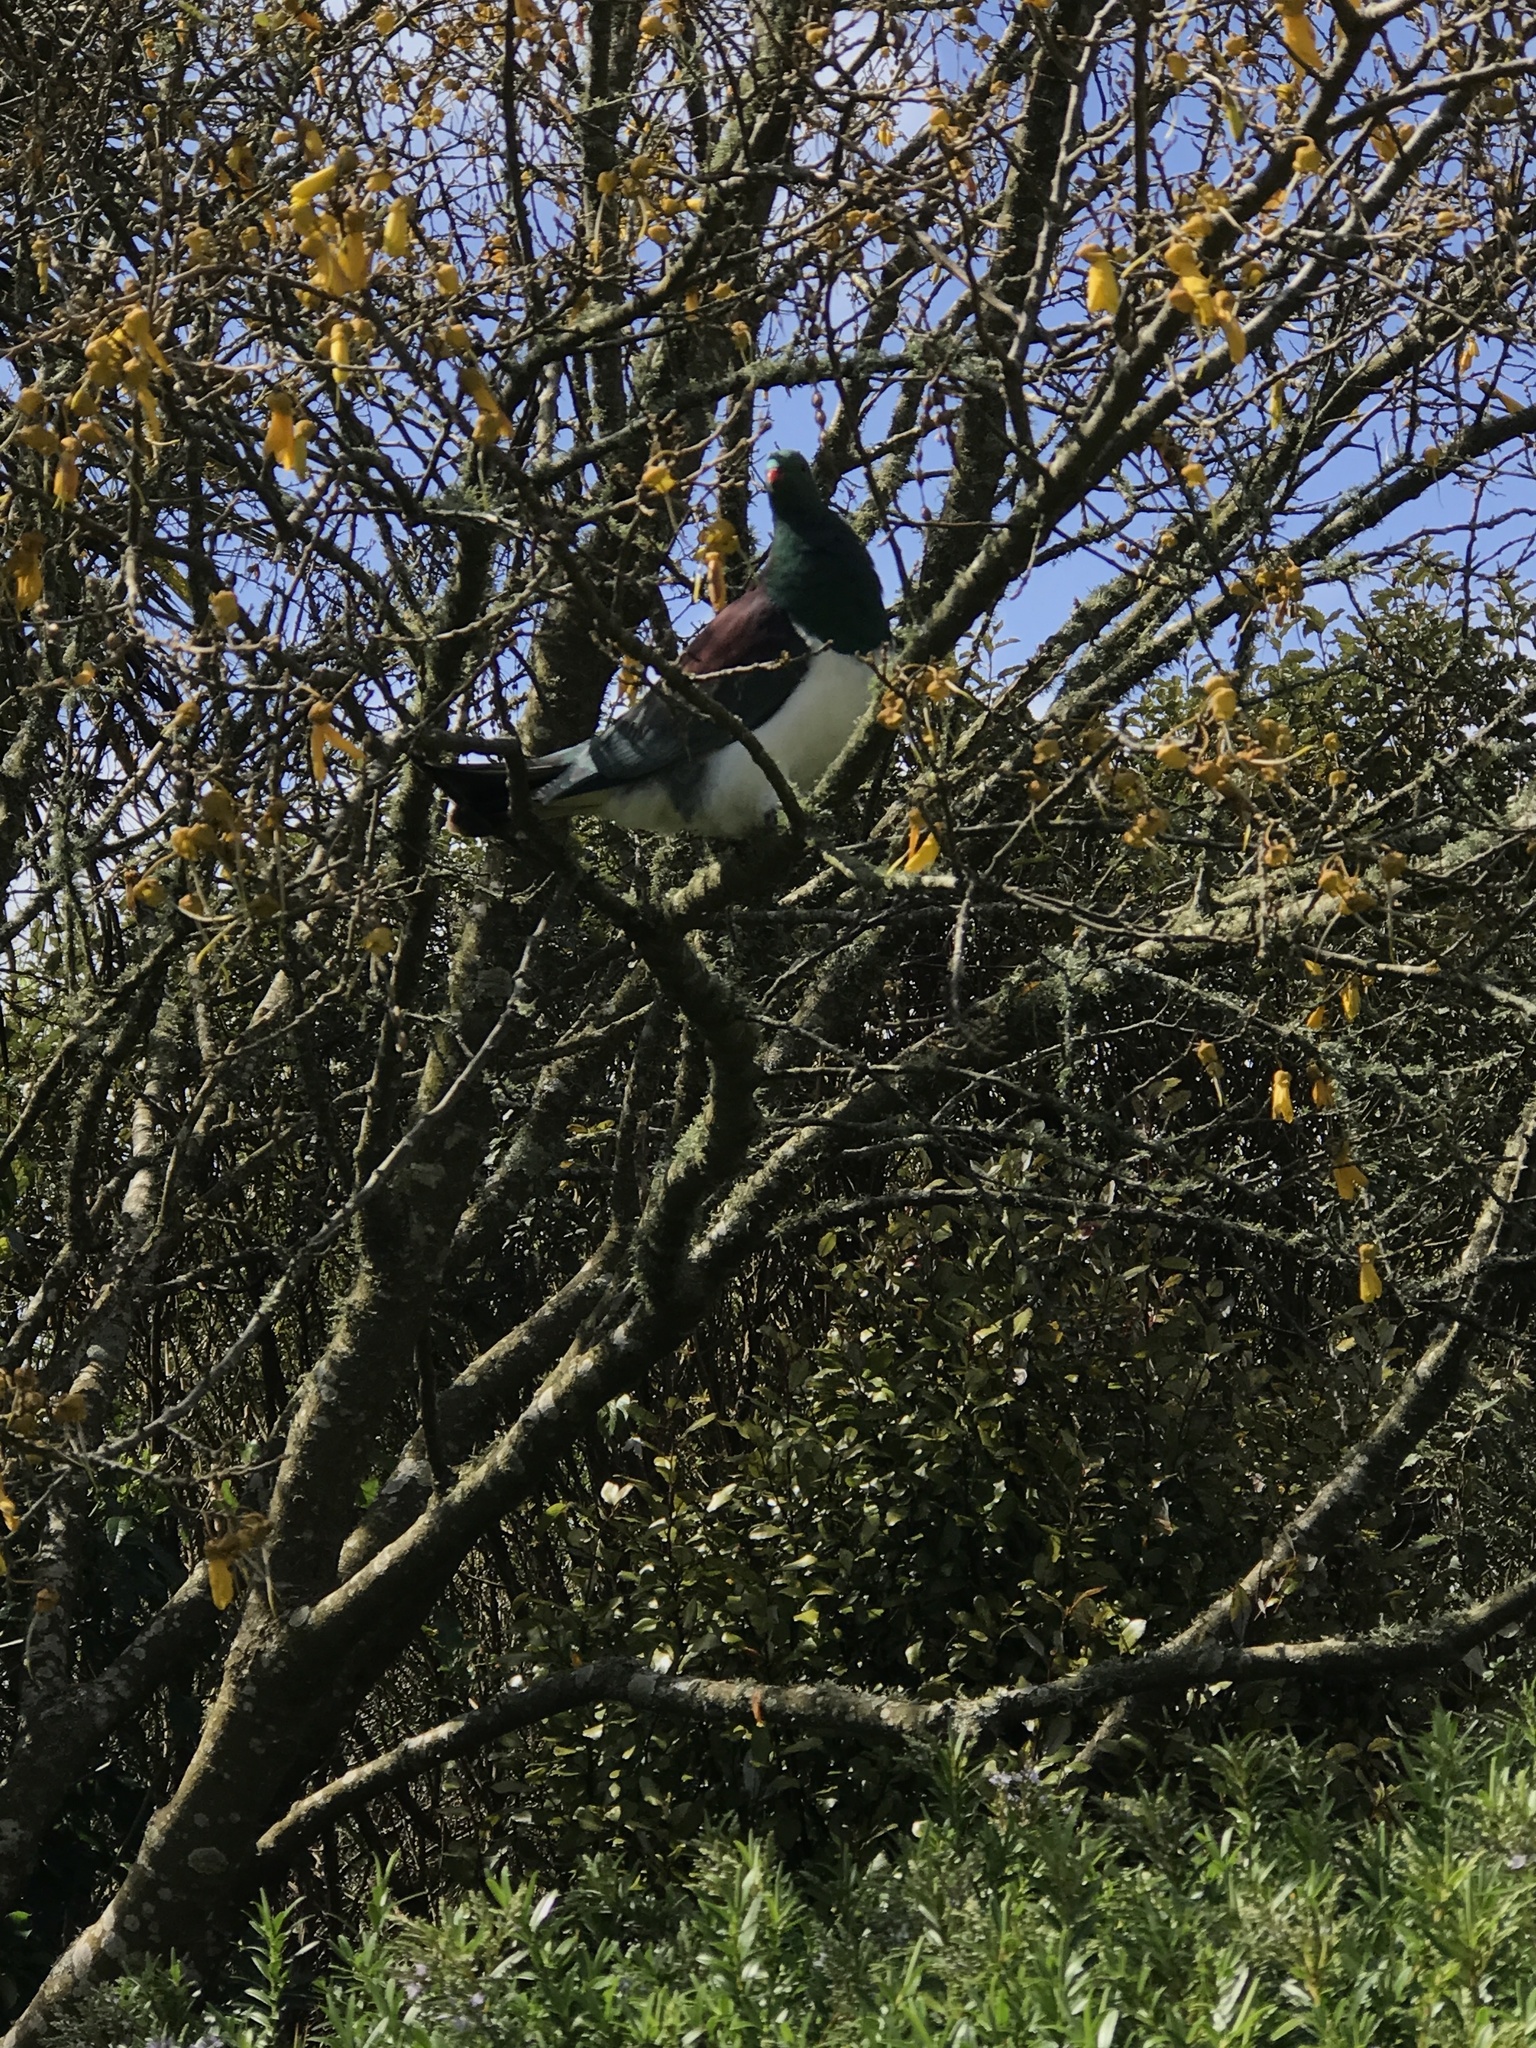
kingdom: Animalia
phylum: Chordata
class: Aves
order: Columbiformes
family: Columbidae
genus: Hemiphaga
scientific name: Hemiphaga novaeseelandiae
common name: New zealand pigeon
